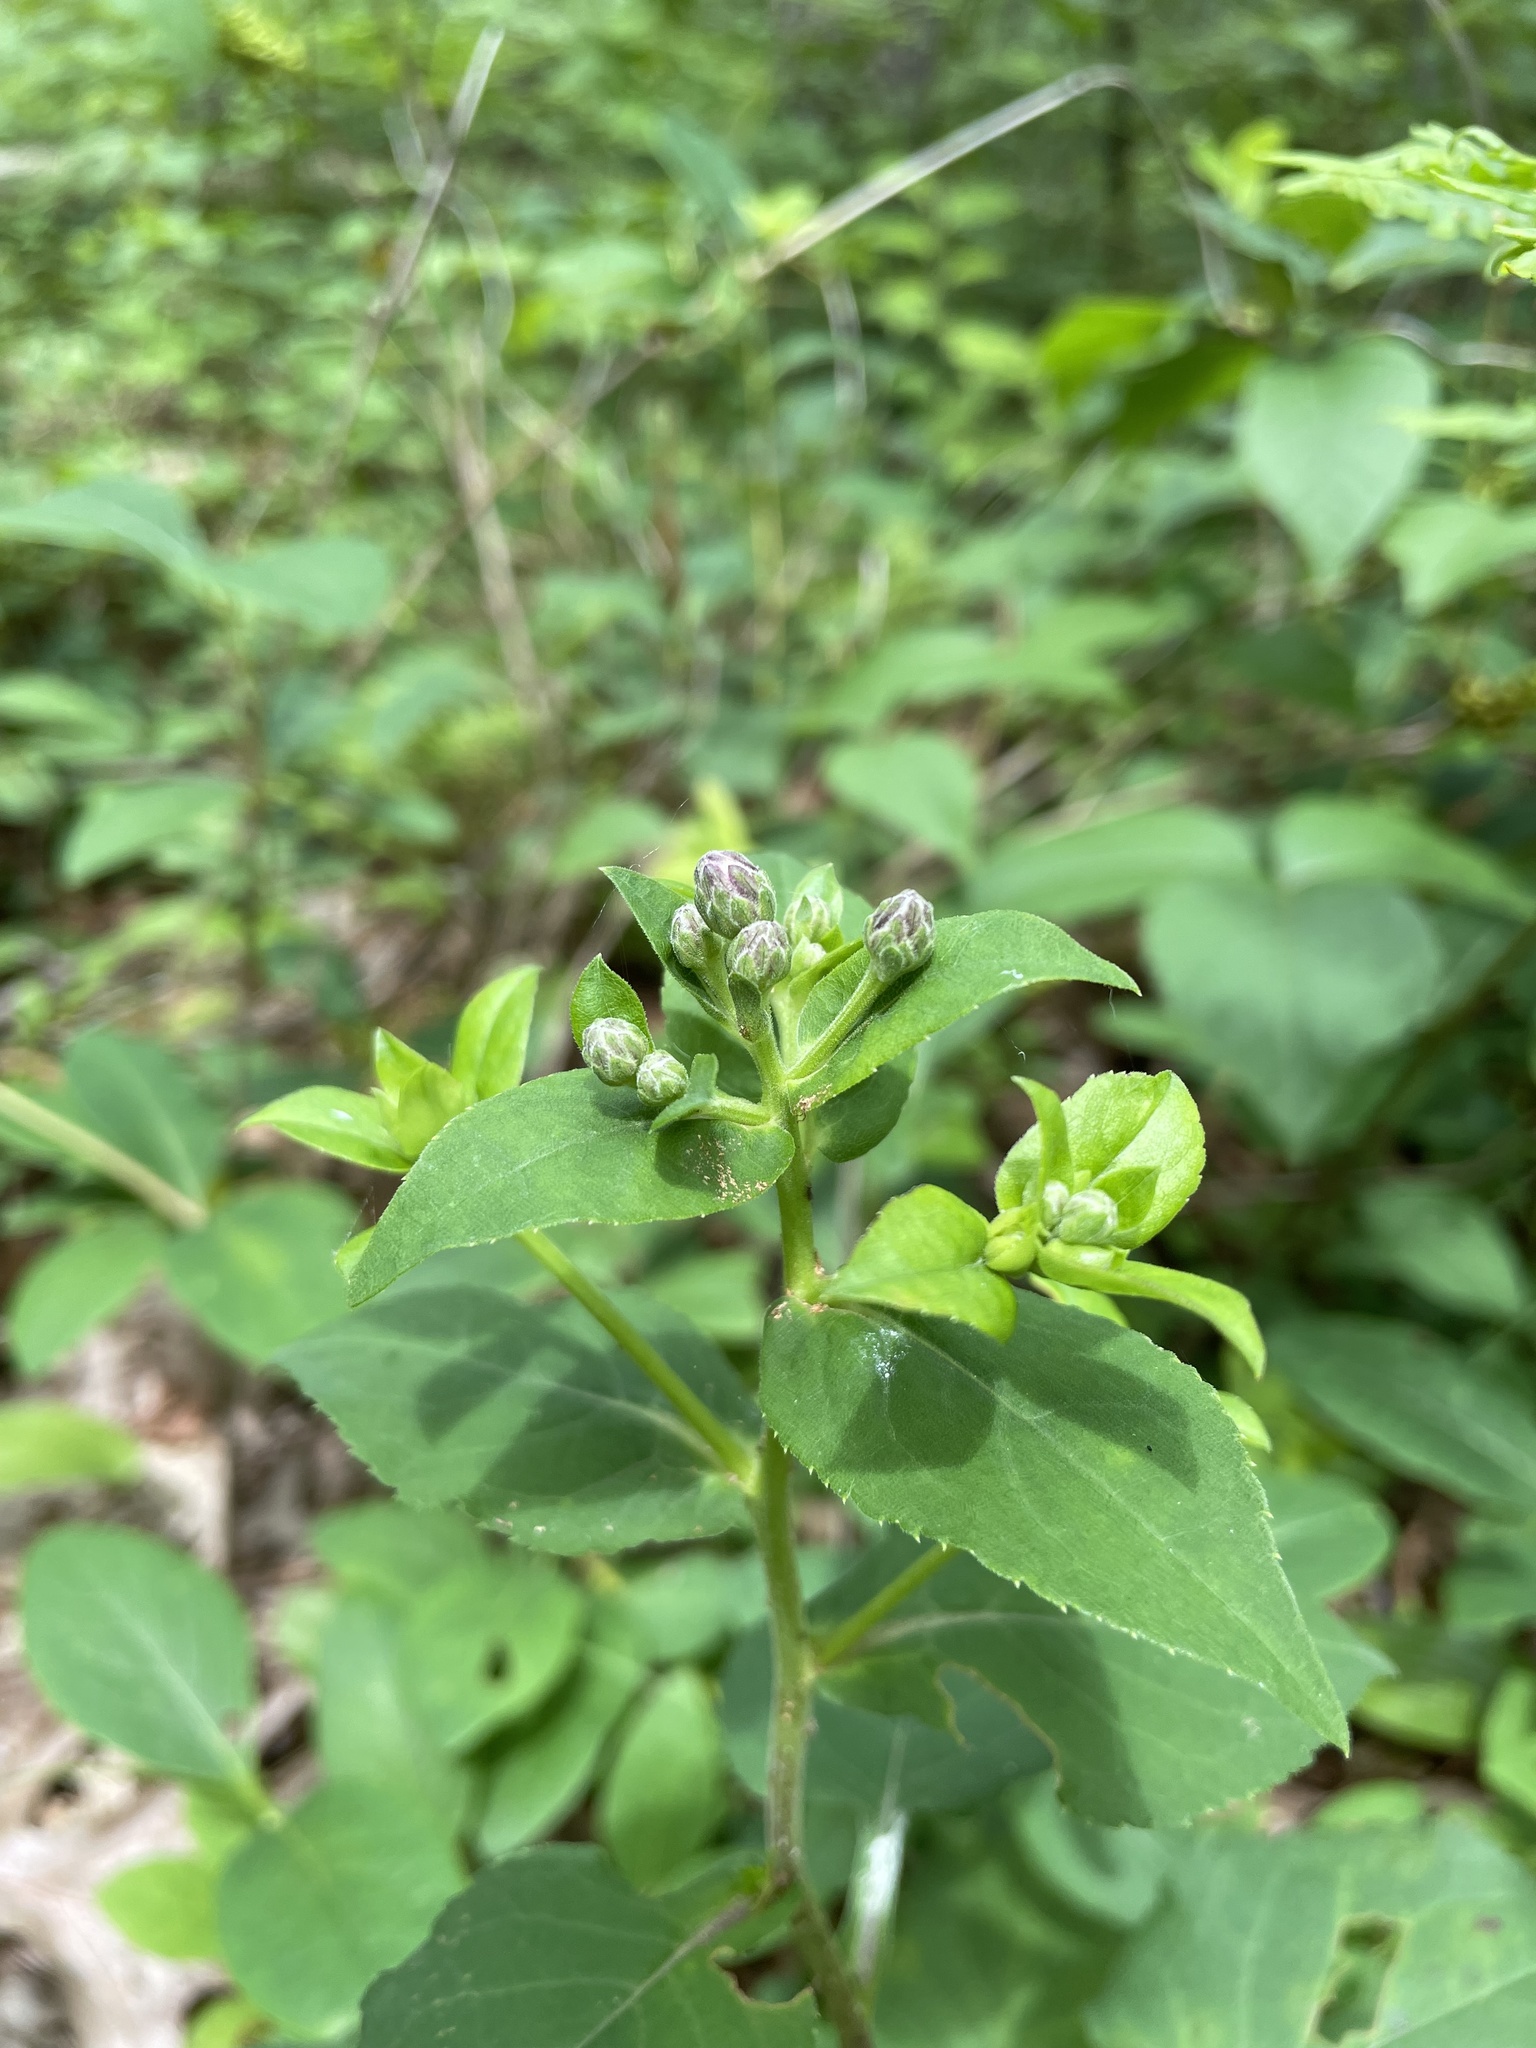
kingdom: Plantae
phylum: Tracheophyta
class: Magnoliopsida
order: Asterales
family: Asteraceae
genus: Eurybia
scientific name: Eurybia macrophylla
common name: Big-leaved aster
